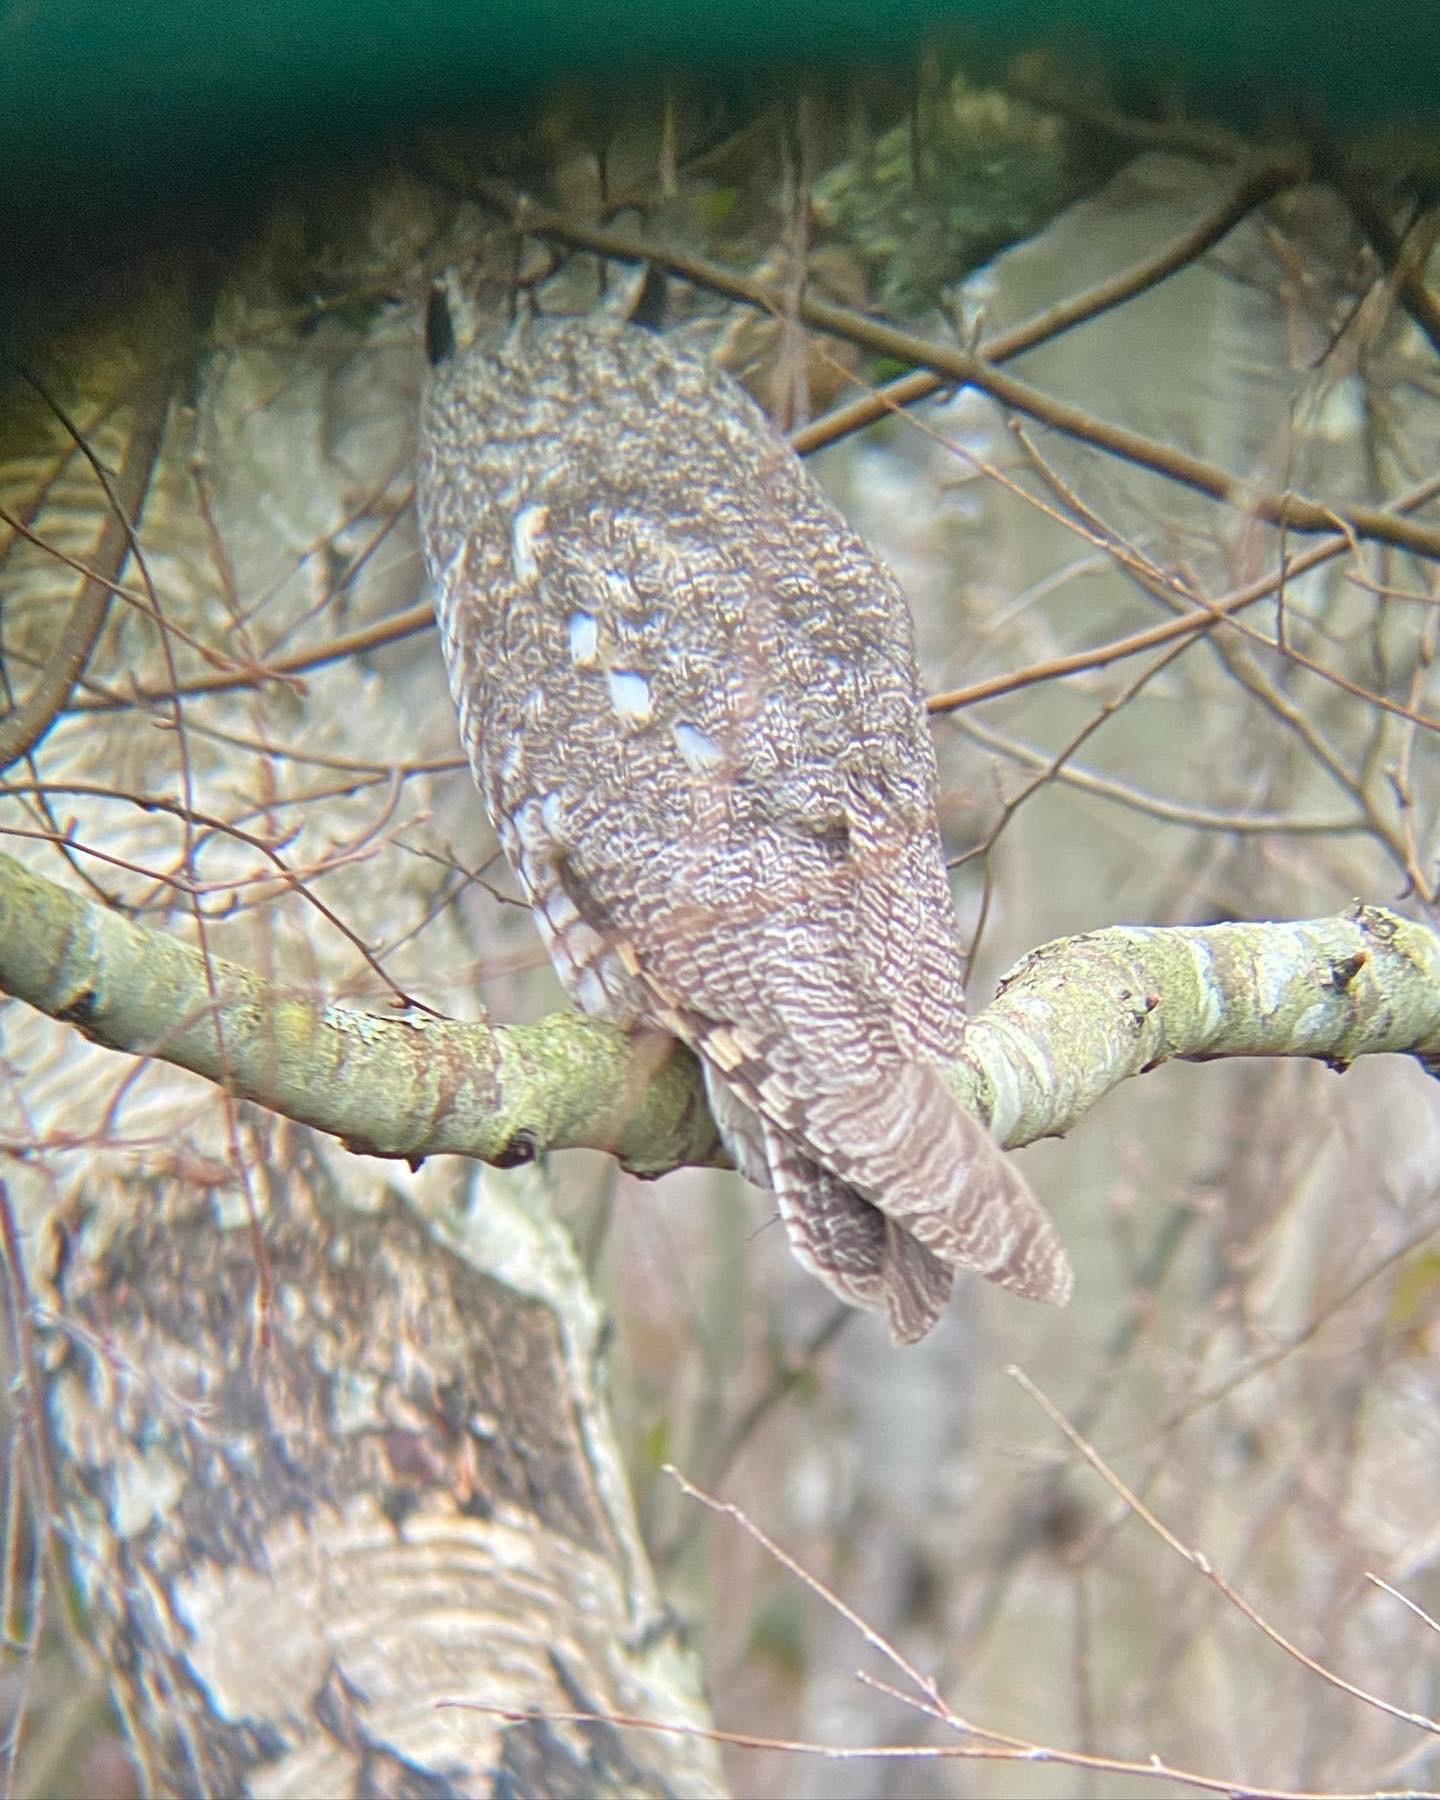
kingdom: Animalia
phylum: Chordata
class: Aves
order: Strigiformes
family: Strigidae
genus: Asio
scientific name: Asio otus
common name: Long-eared owl
